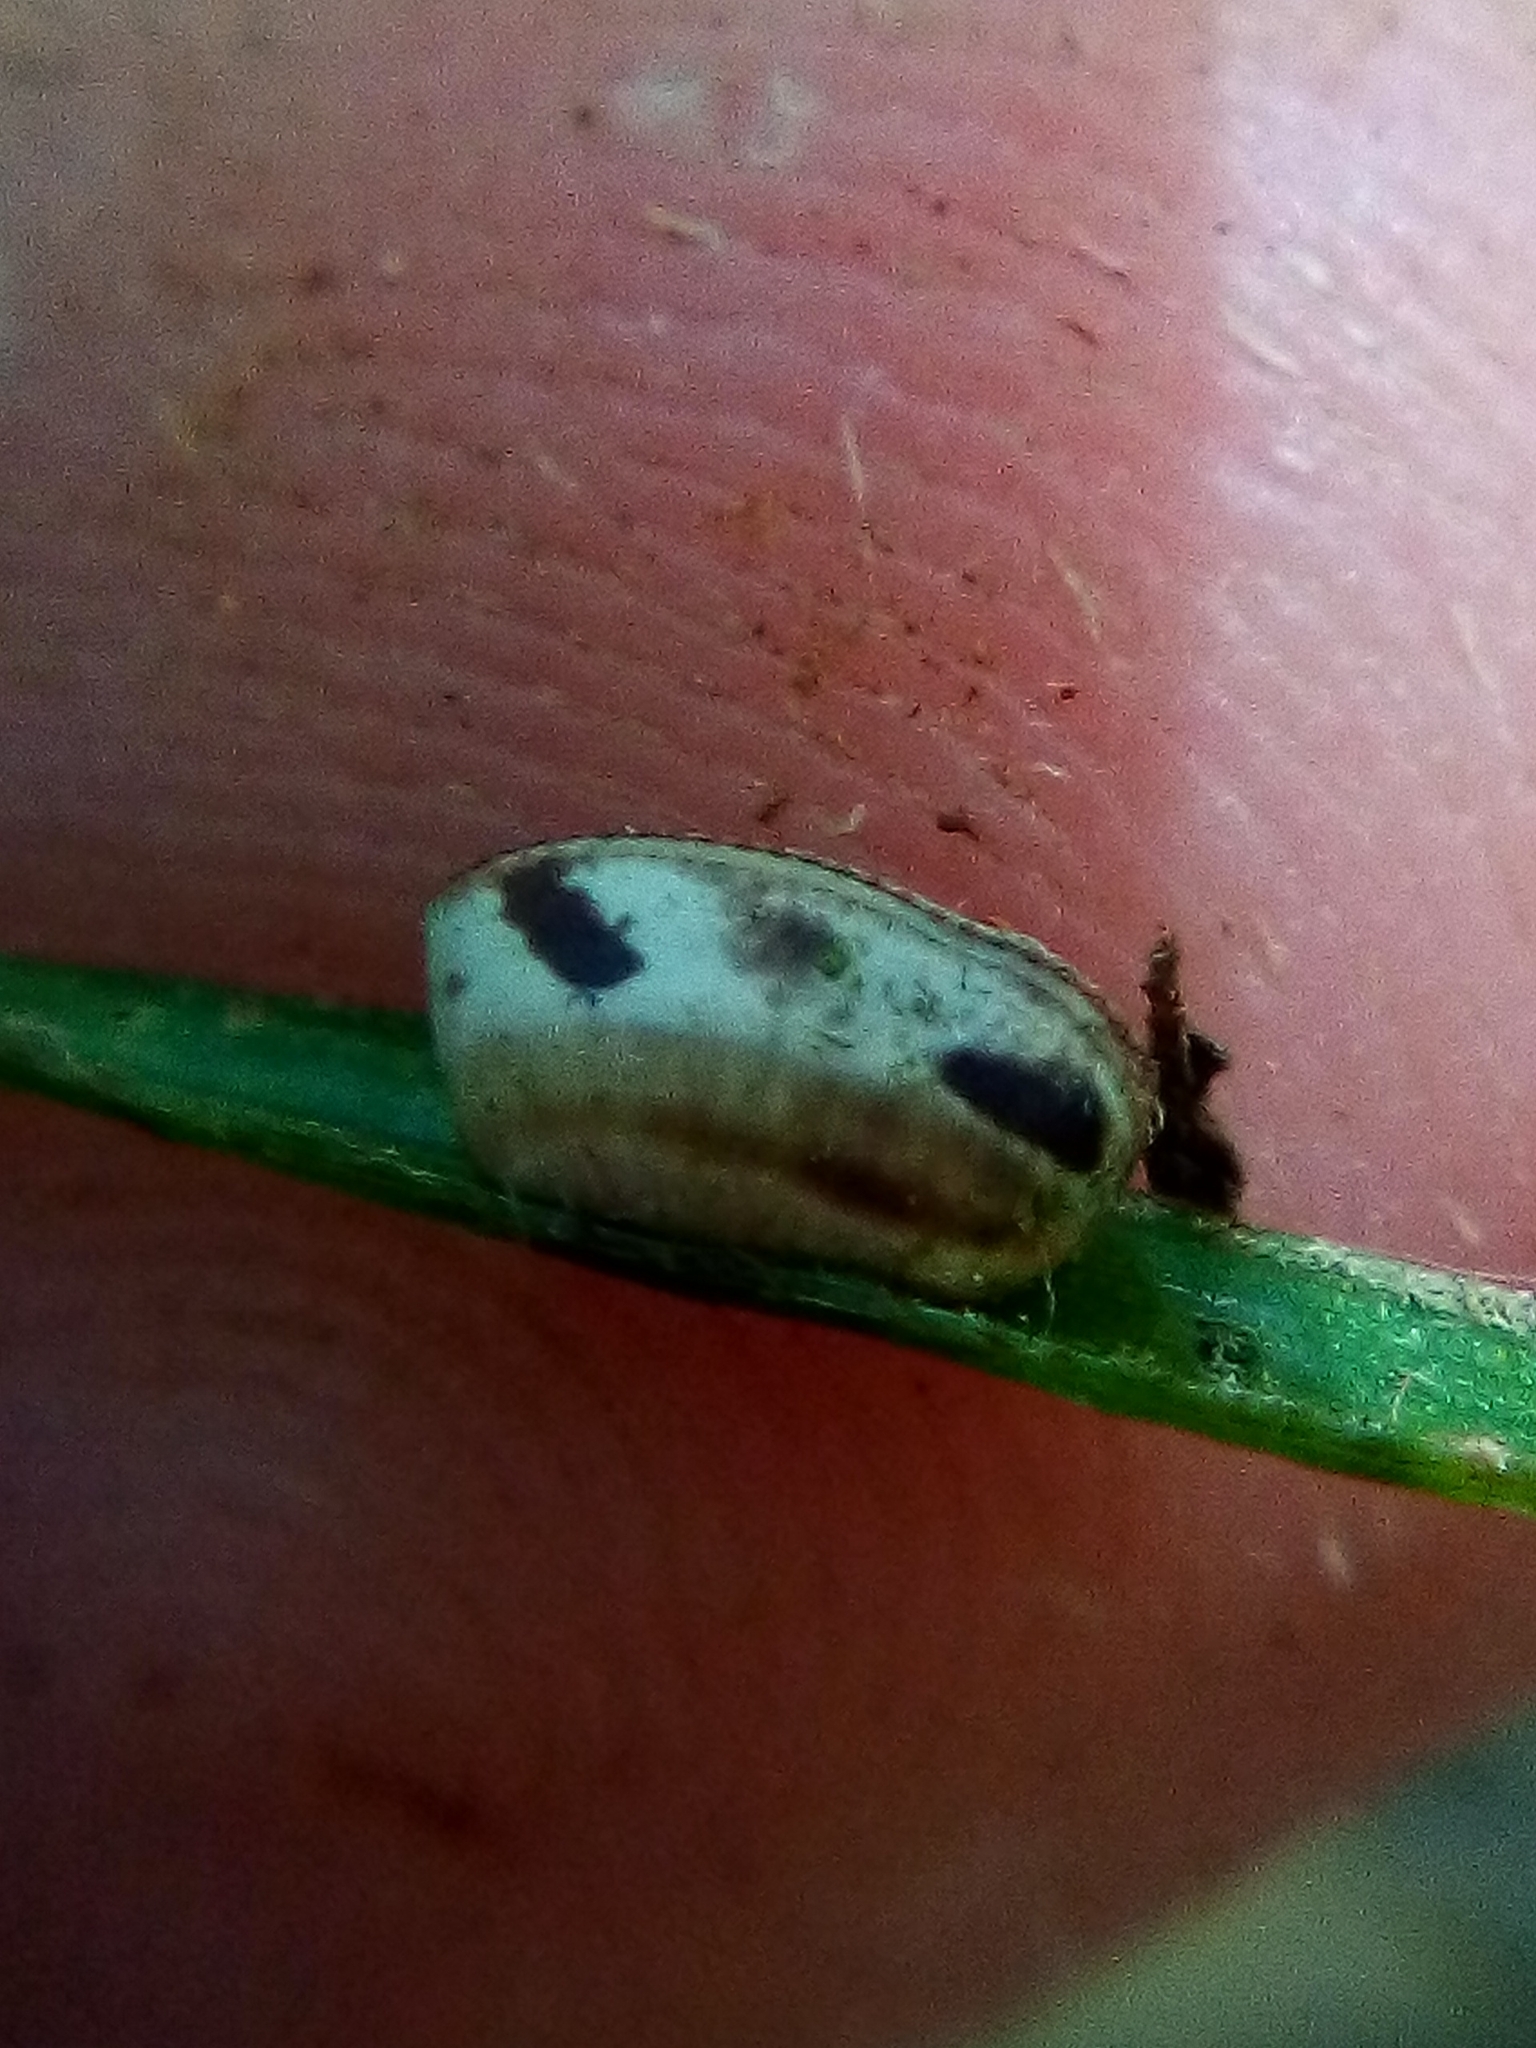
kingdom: Animalia
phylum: Arthropoda
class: Insecta
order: Blattodea
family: Ectobiidae
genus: Balta
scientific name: Balta bicolor
